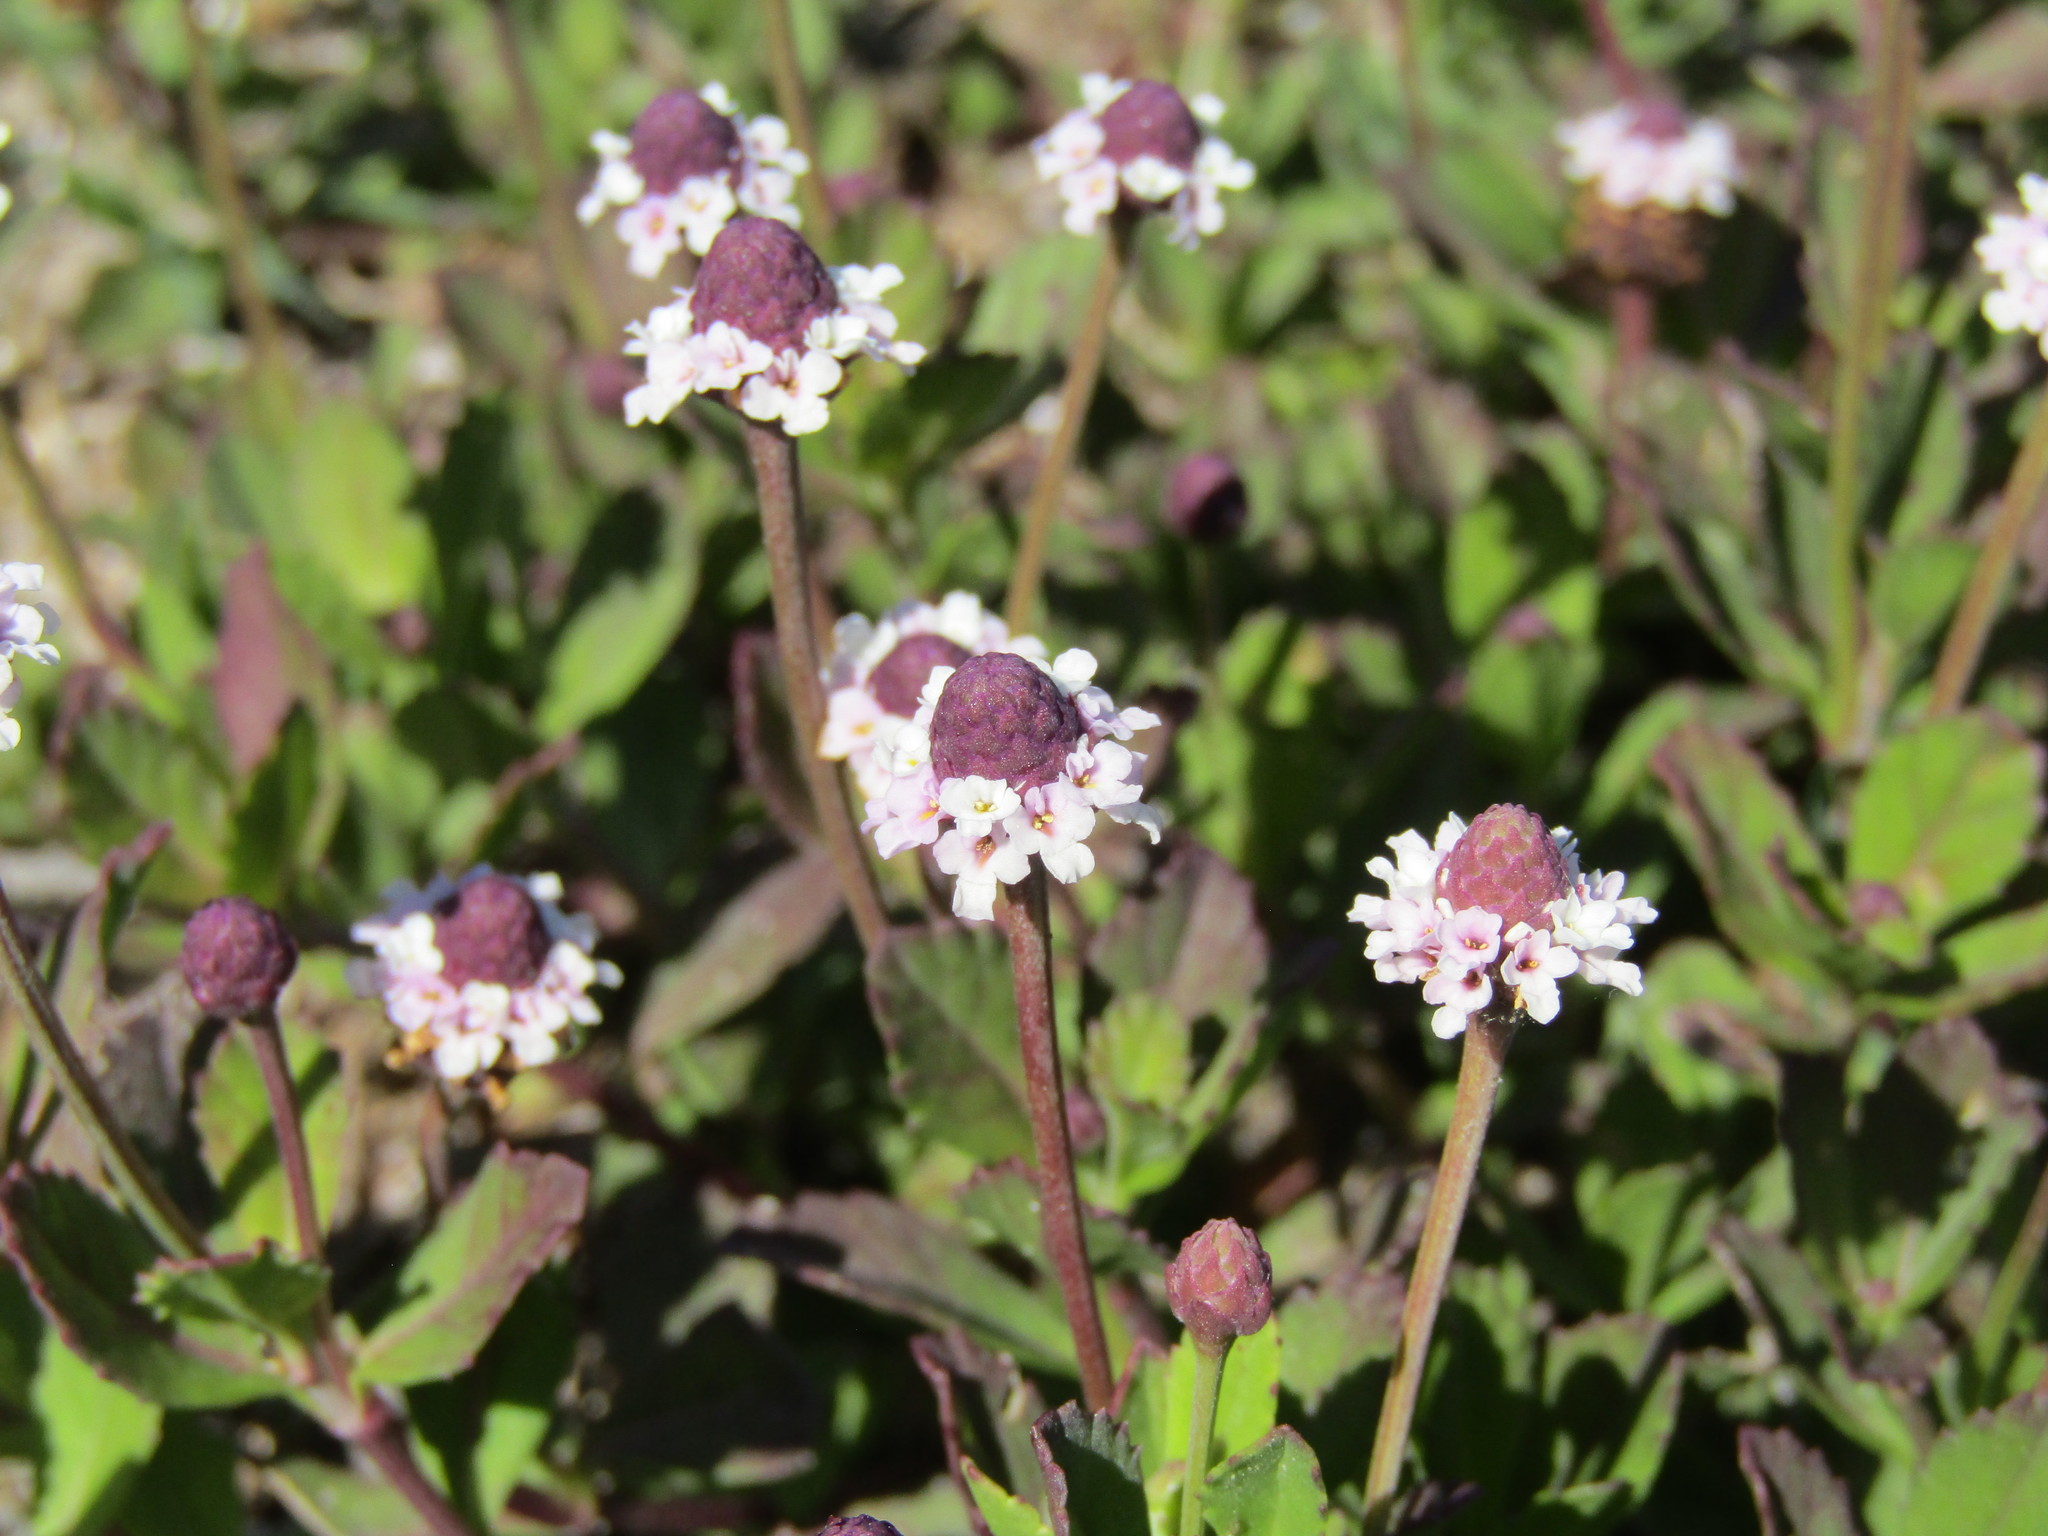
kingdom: Plantae
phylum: Tracheophyta
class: Magnoliopsida
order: Lamiales
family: Verbenaceae
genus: Phyla
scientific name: Phyla nodiflora
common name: Frogfruit
